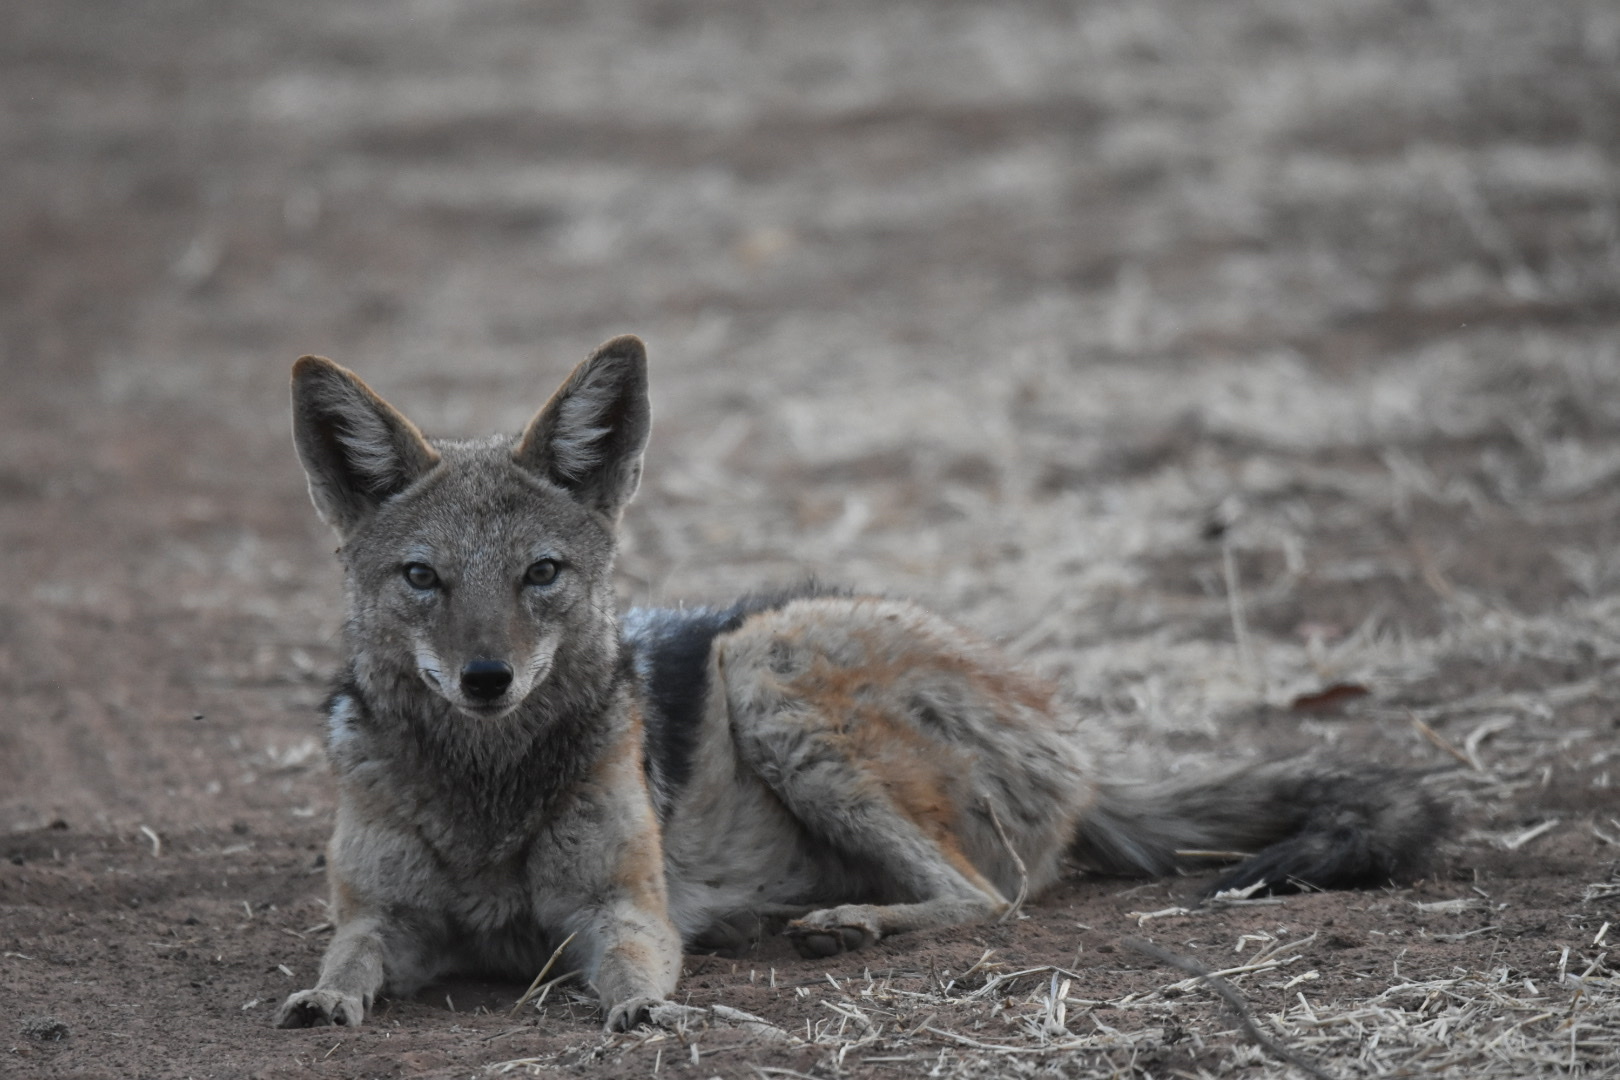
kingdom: Animalia
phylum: Chordata
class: Mammalia
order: Carnivora
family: Canidae
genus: Lupulella
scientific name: Lupulella
